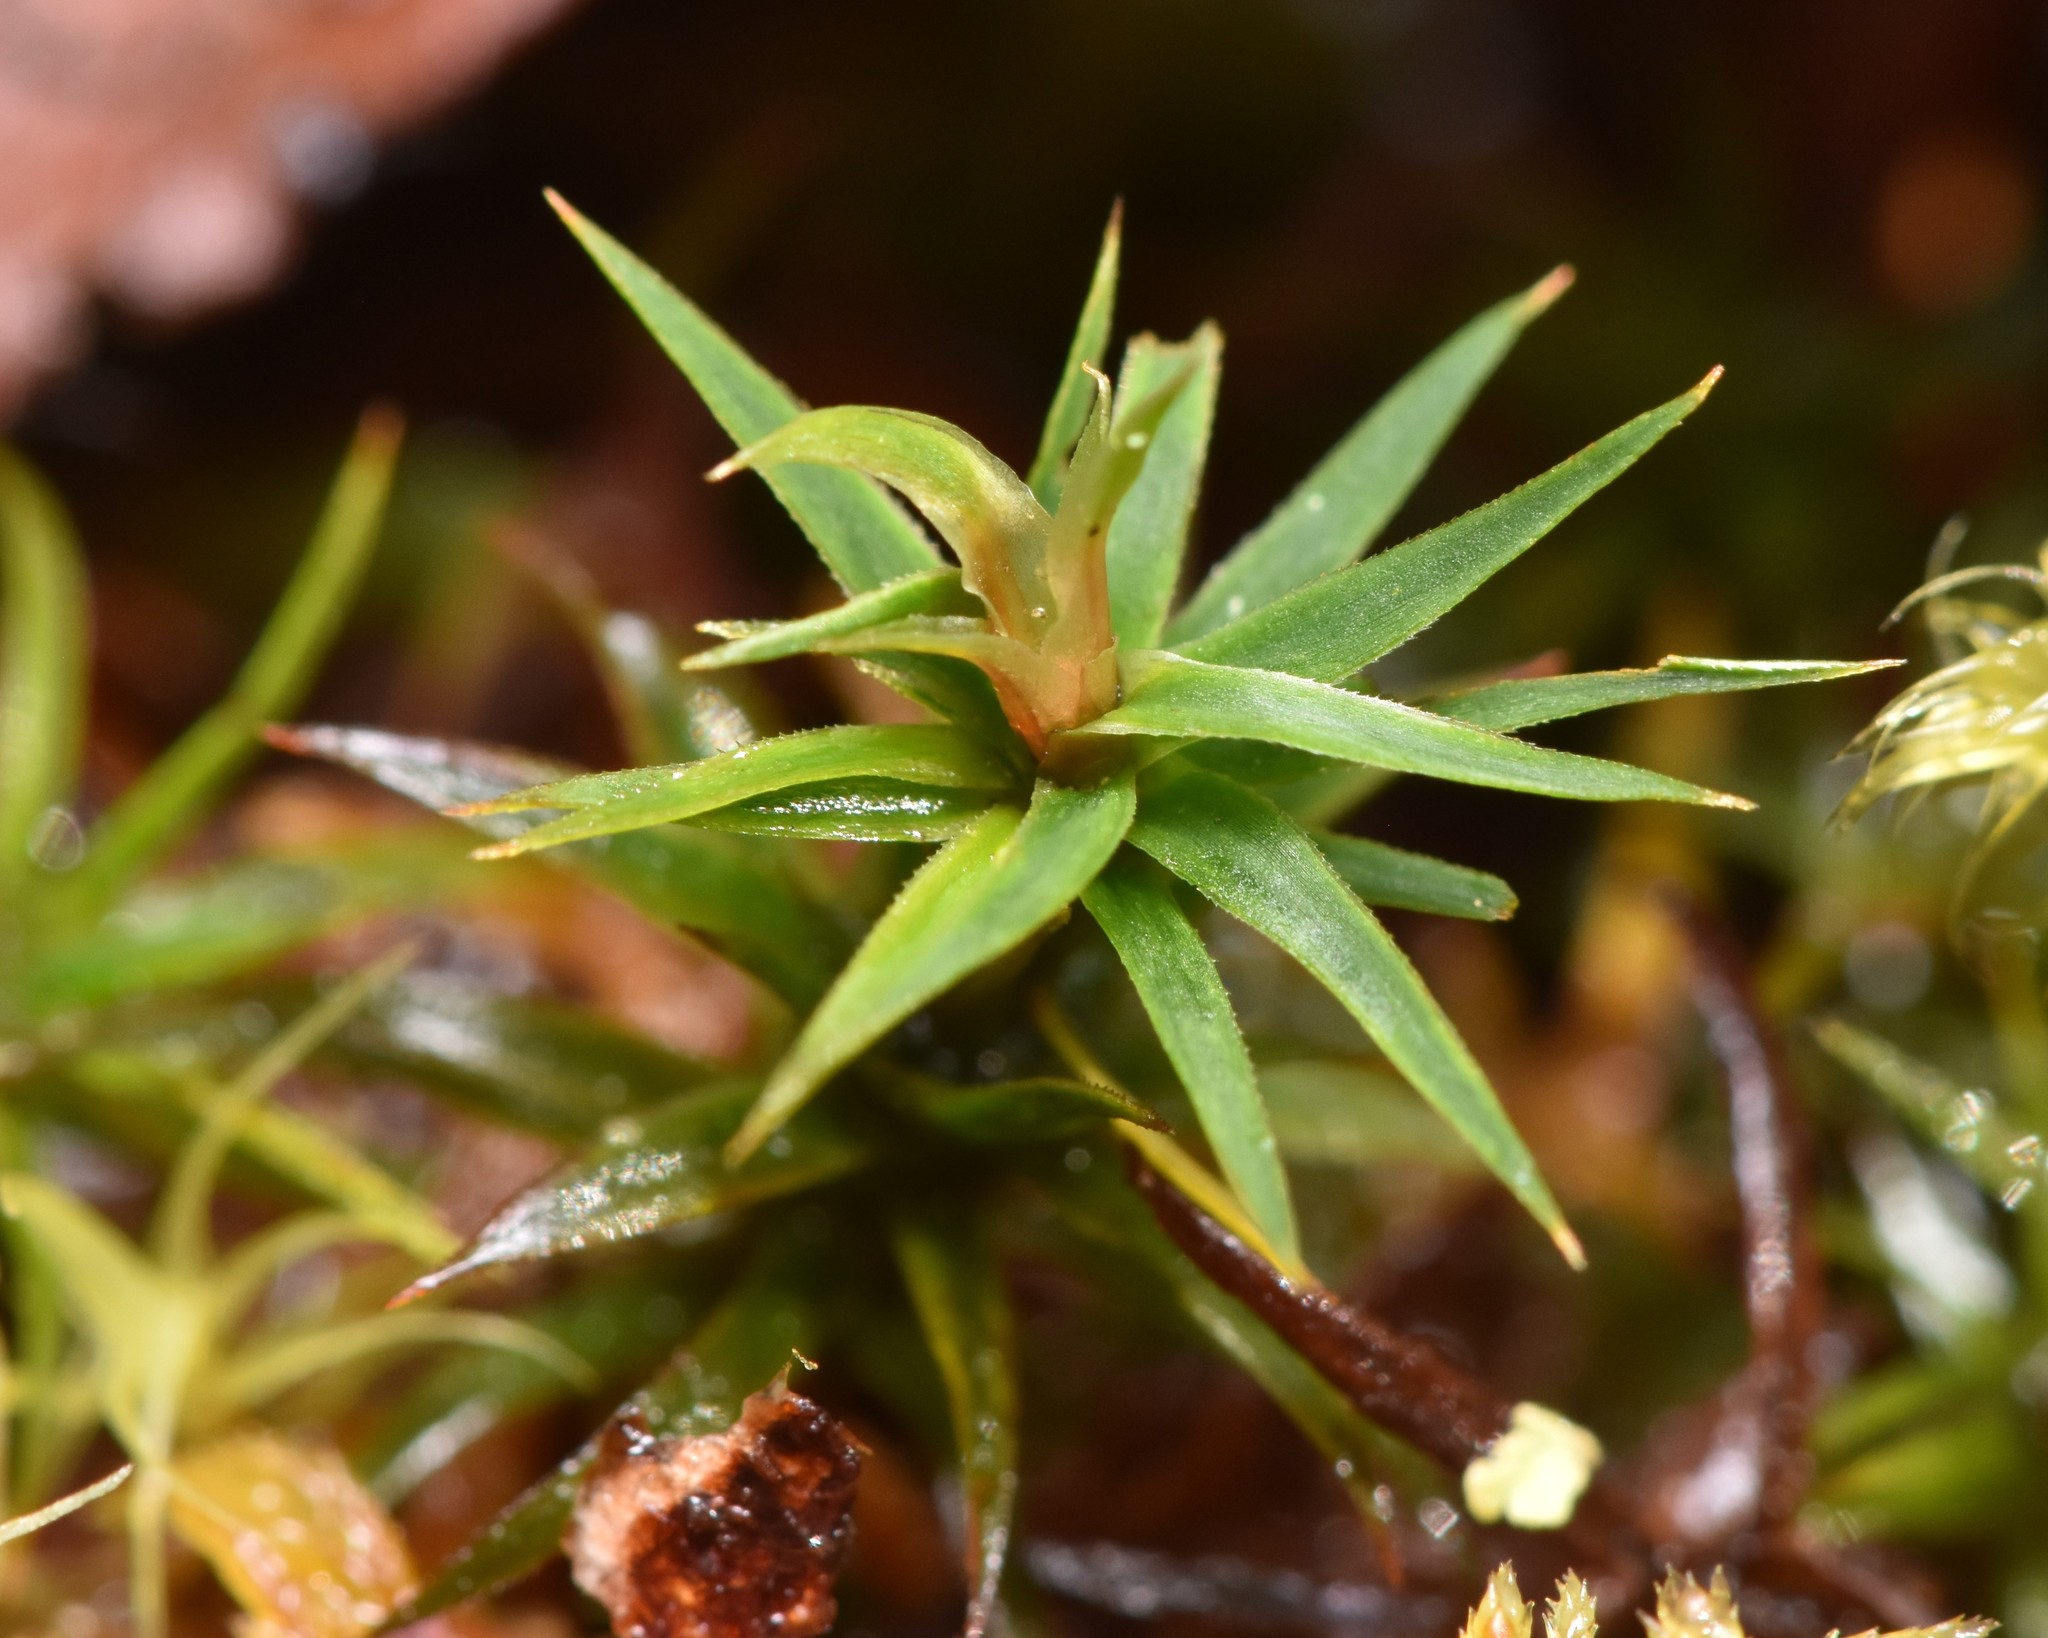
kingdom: Plantae
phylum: Bryophyta
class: Polytrichopsida
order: Polytrichales
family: Polytrichaceae
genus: Polytrichum
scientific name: Polytrichum formosum
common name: Bank haircap moss
